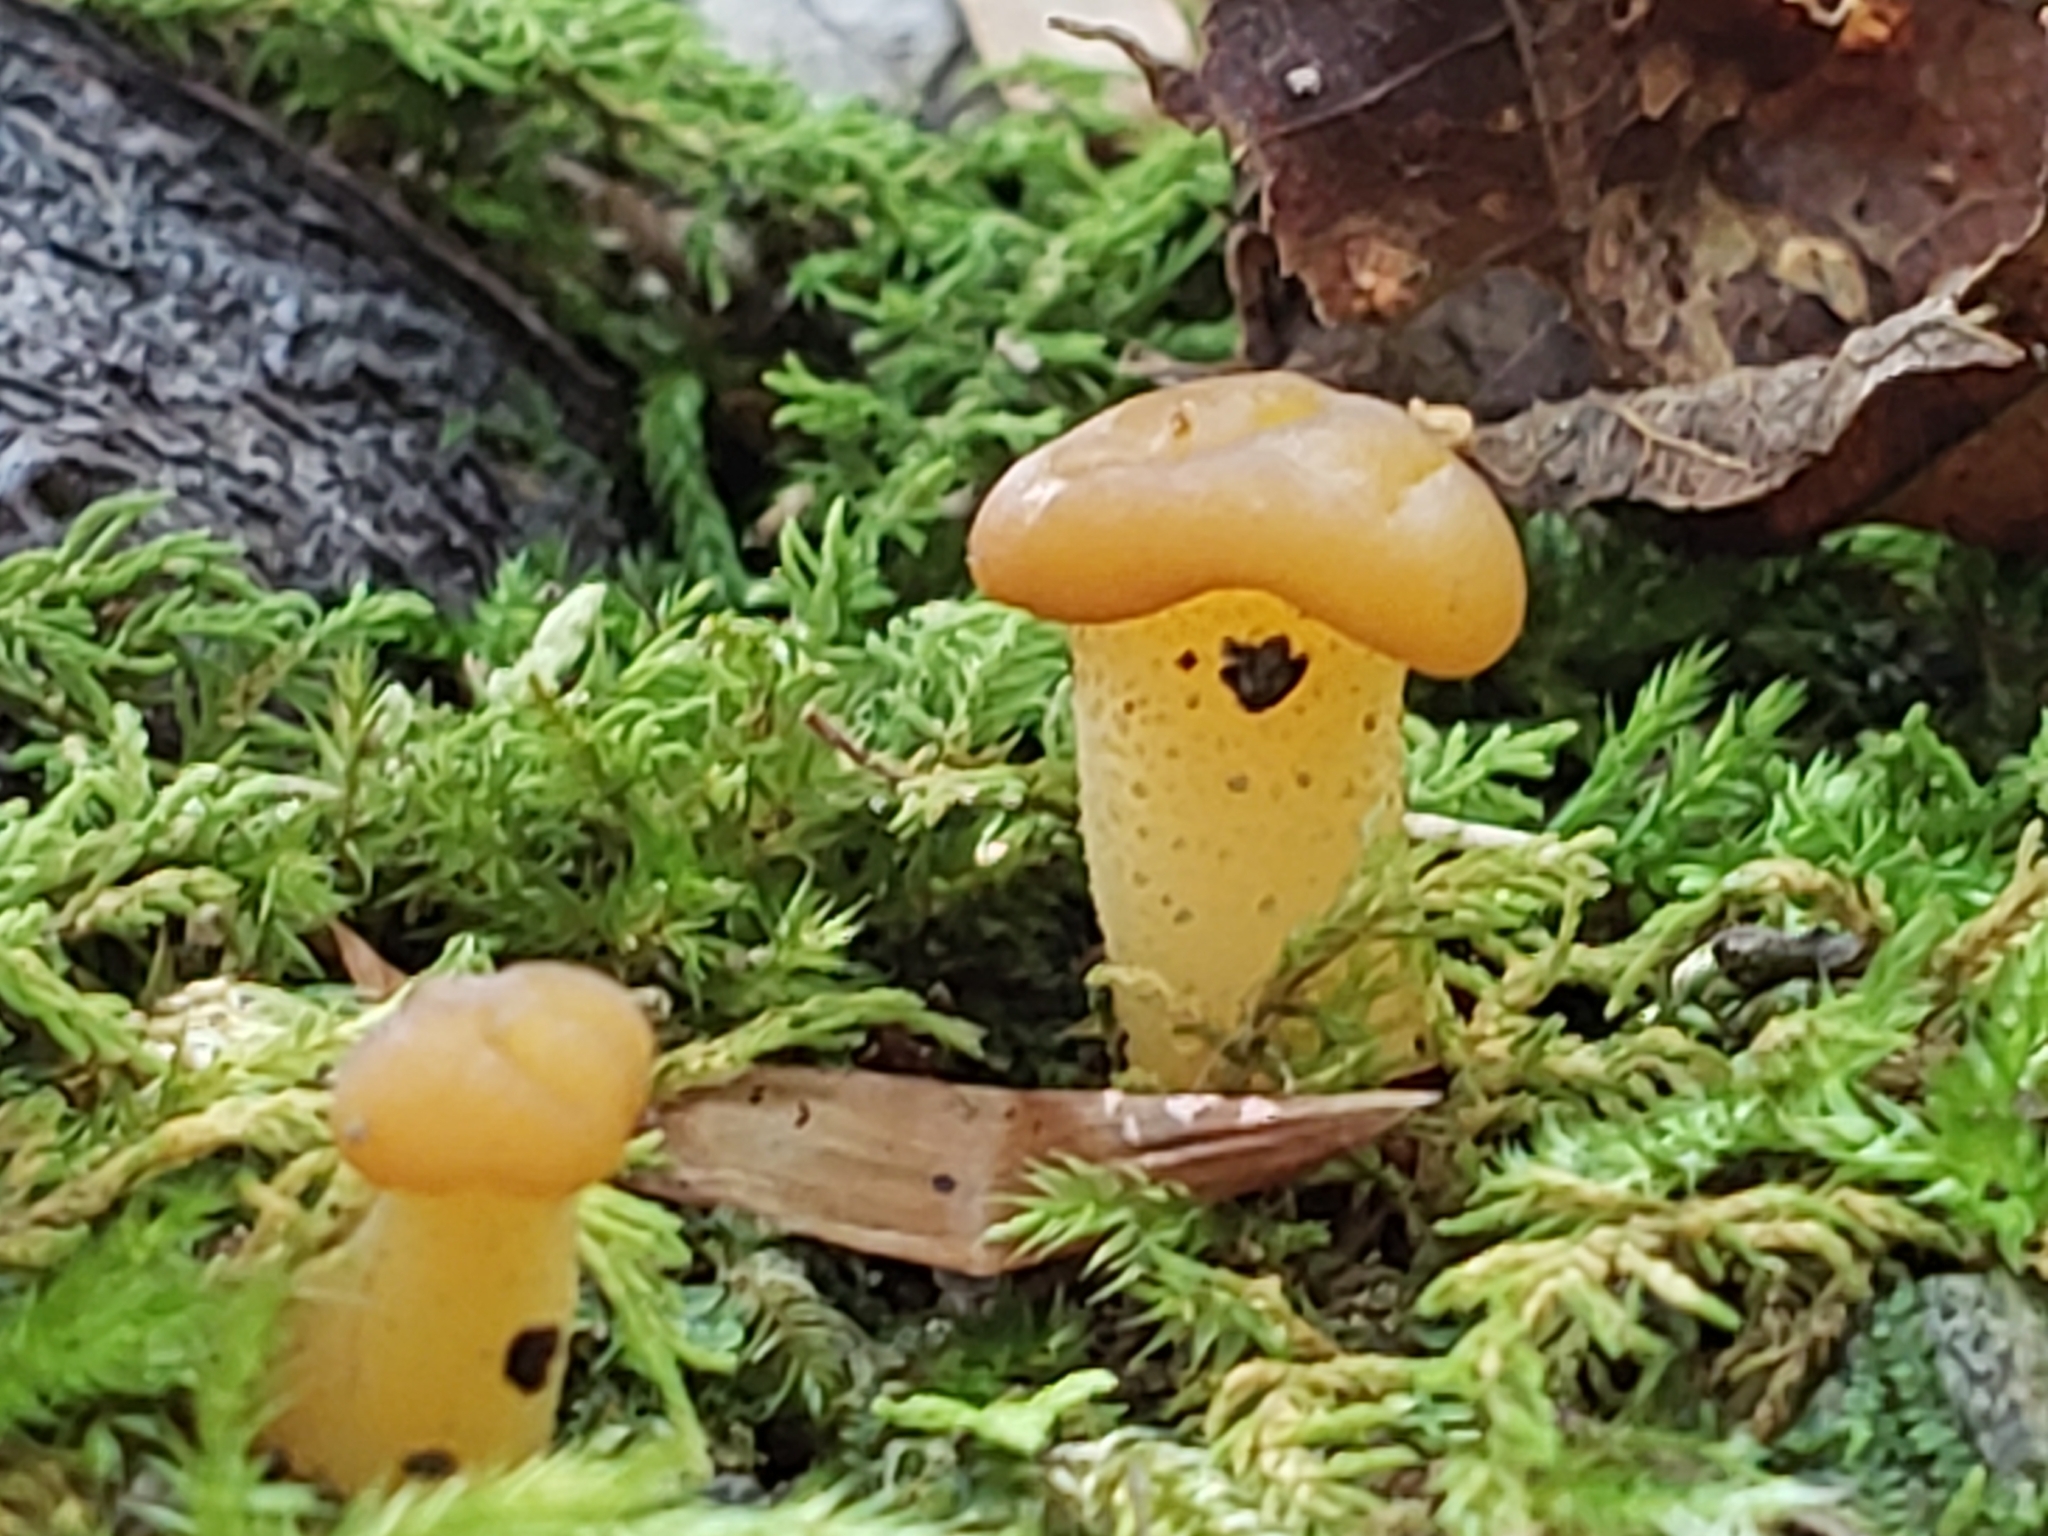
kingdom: Fungi
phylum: Ascomycota
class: Leotiomycetes
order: Leotiales
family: Leotiaceae
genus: Leotia
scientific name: Leotia lubrica
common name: Jellybaby
